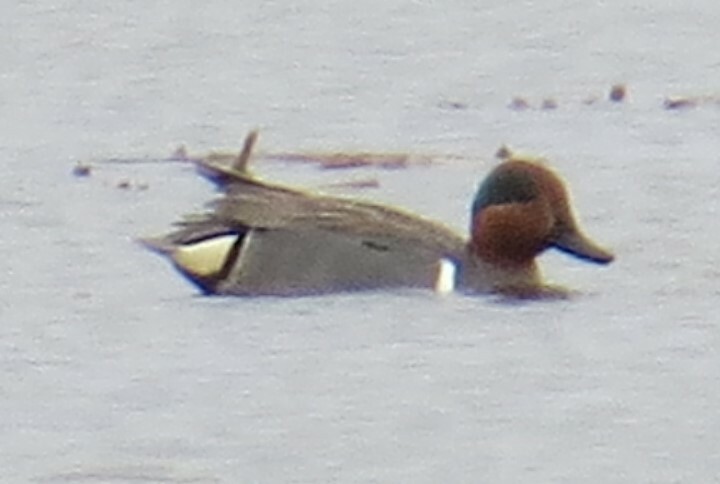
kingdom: Animalia
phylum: Chordata
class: Aves
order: Anseriformes
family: Anatidae
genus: Anas
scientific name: Anas crecca
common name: Eurasian teal
